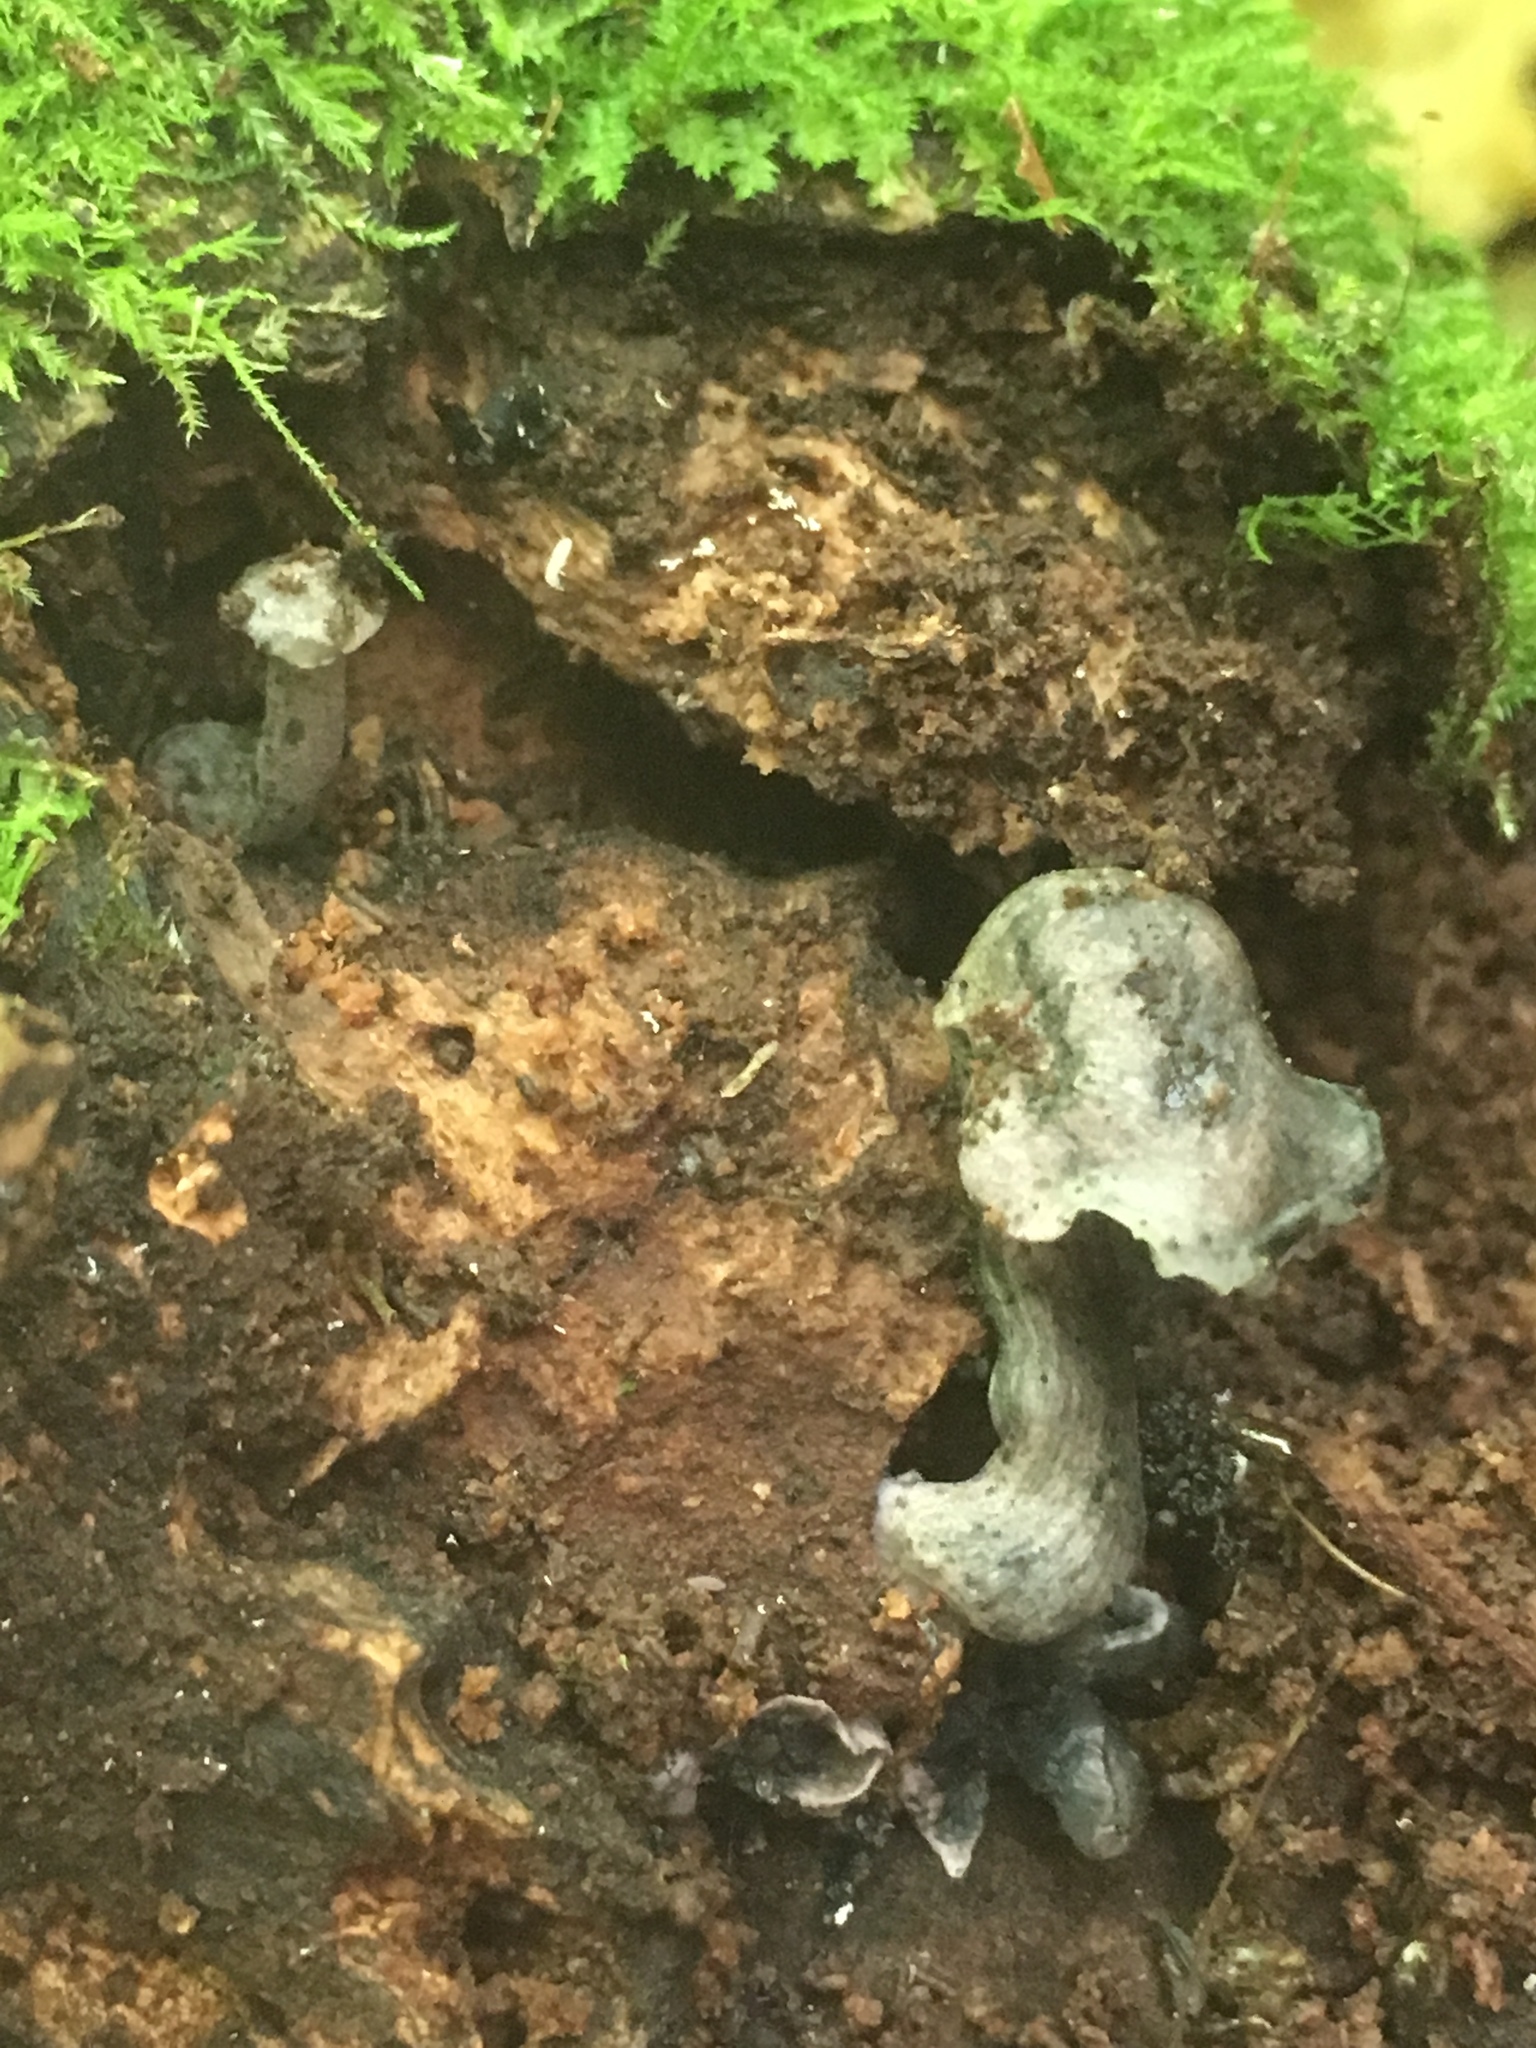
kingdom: Fungi
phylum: Basidiomycota
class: Agaricomycetes
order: Agaricales
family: Marasmiaceae
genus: Gerronema
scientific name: Gerronema waikanaense
